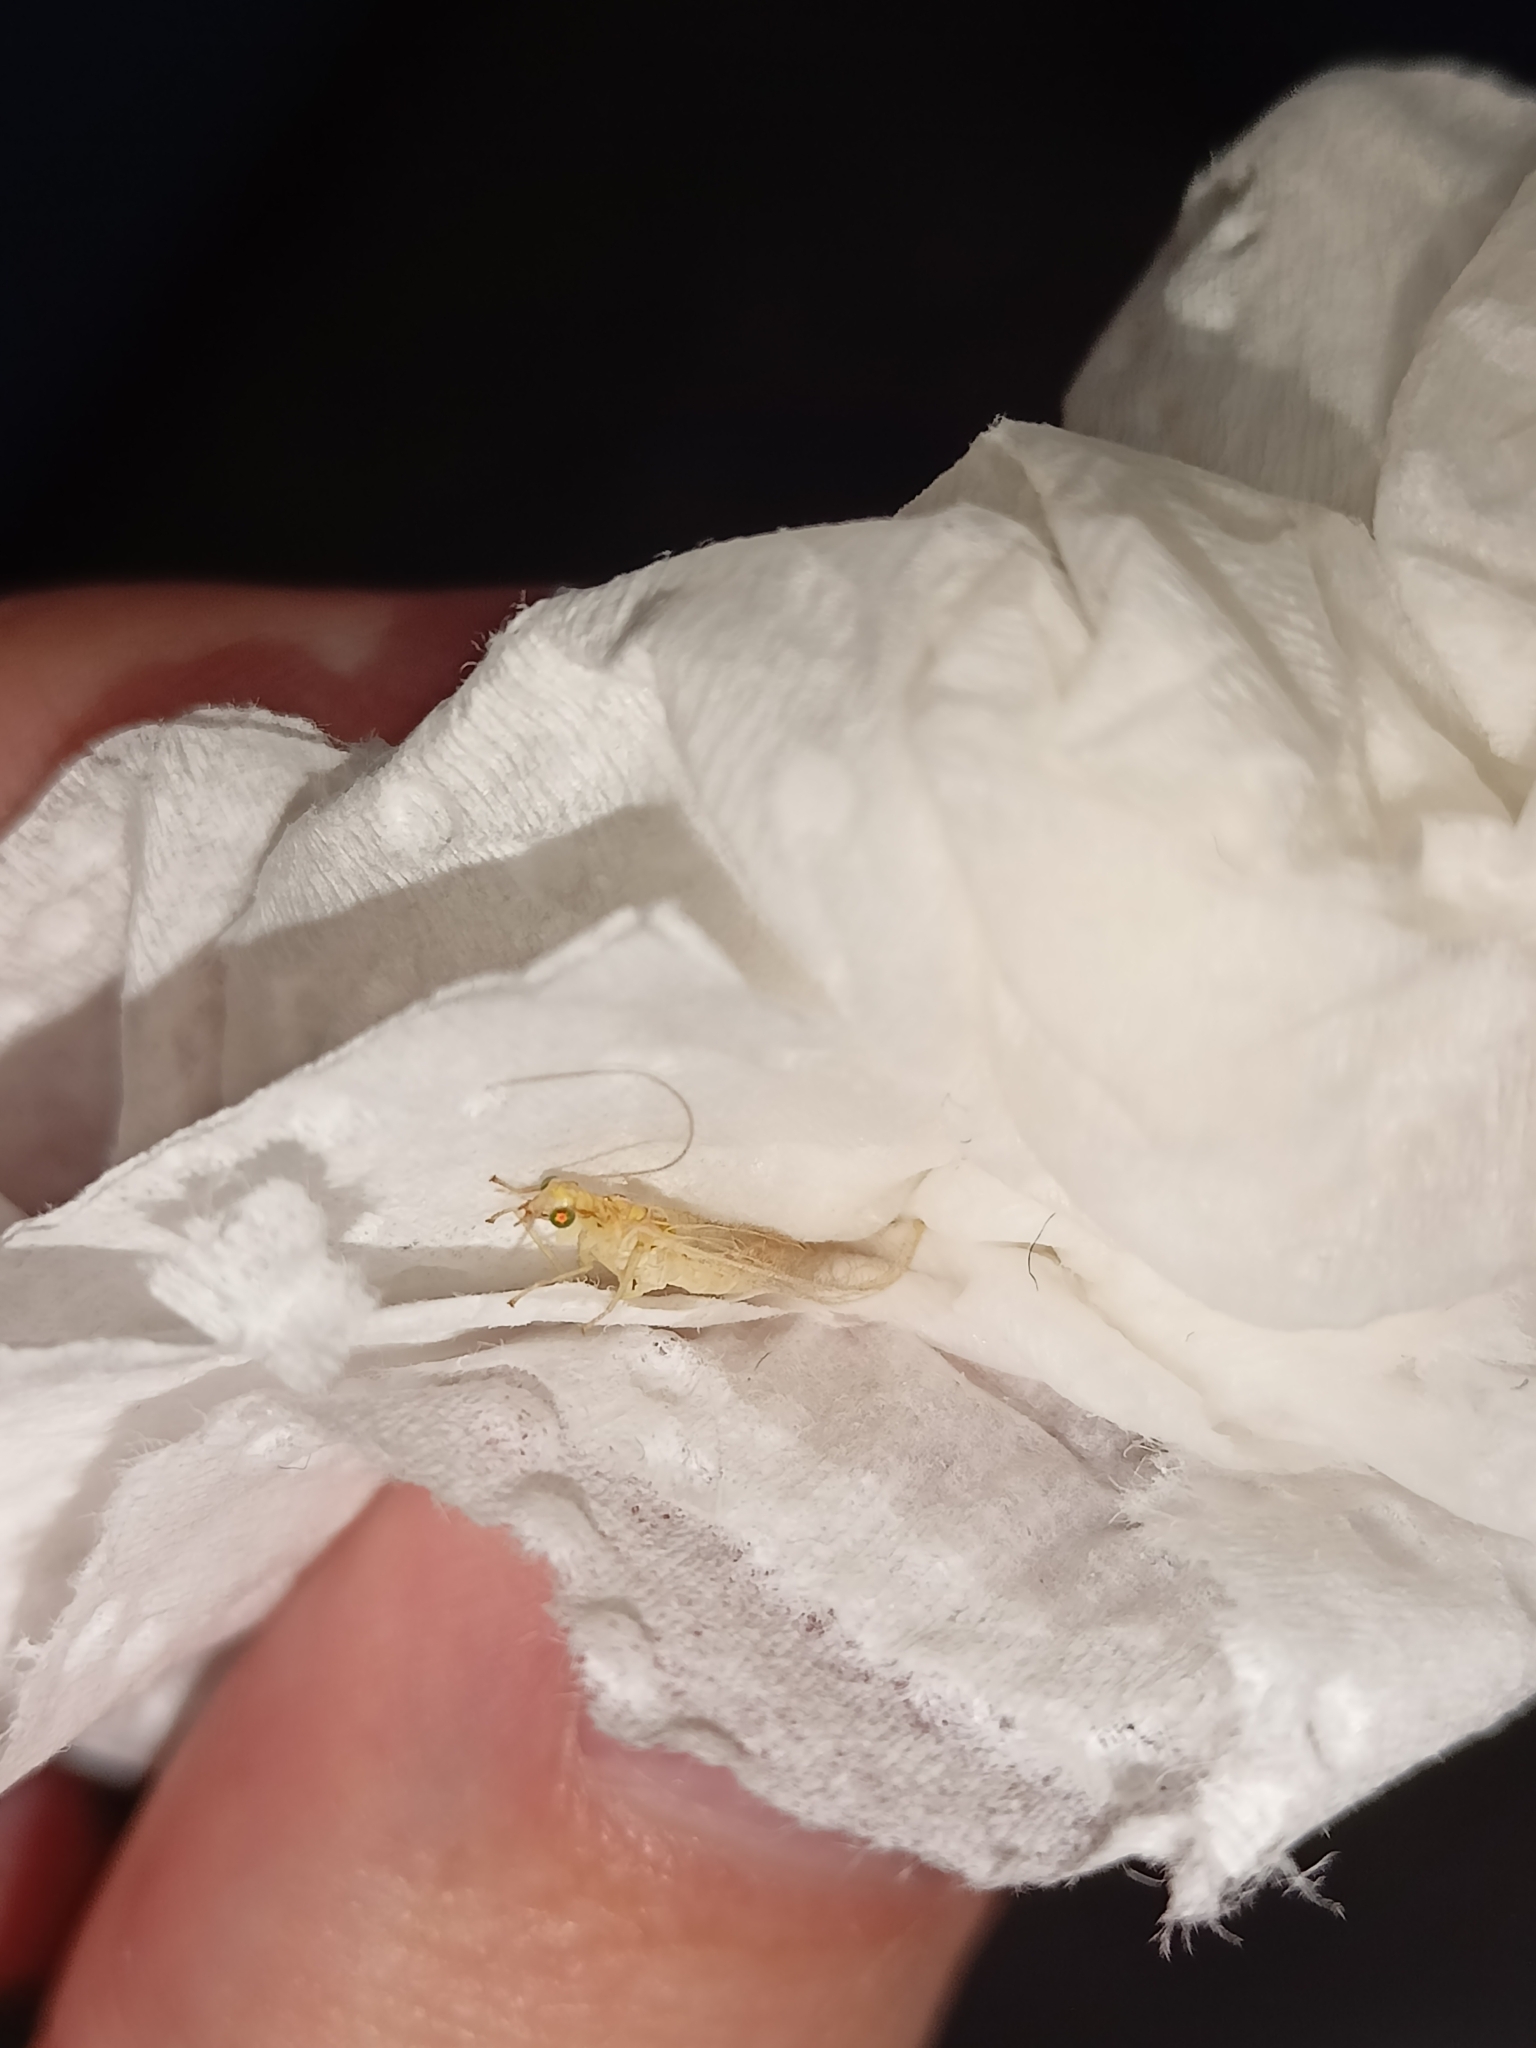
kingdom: Animalia
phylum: Arthropoda
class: Insecta
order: Neuroptera
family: Chrysopidae
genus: Chrysoperla
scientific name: Chrysoperla
